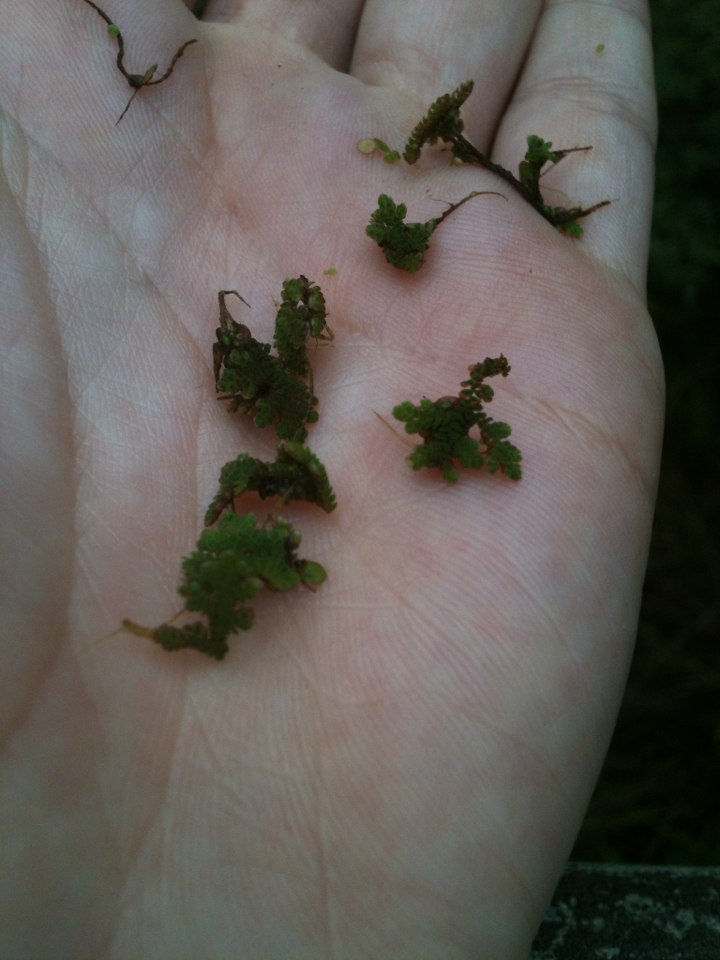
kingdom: Plantae
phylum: Tracheophyta
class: Polypodiopsida
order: Salviniales
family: Salviniaceae
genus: Azolla
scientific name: Azolla caroliniana
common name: Carolina mosquitofern
